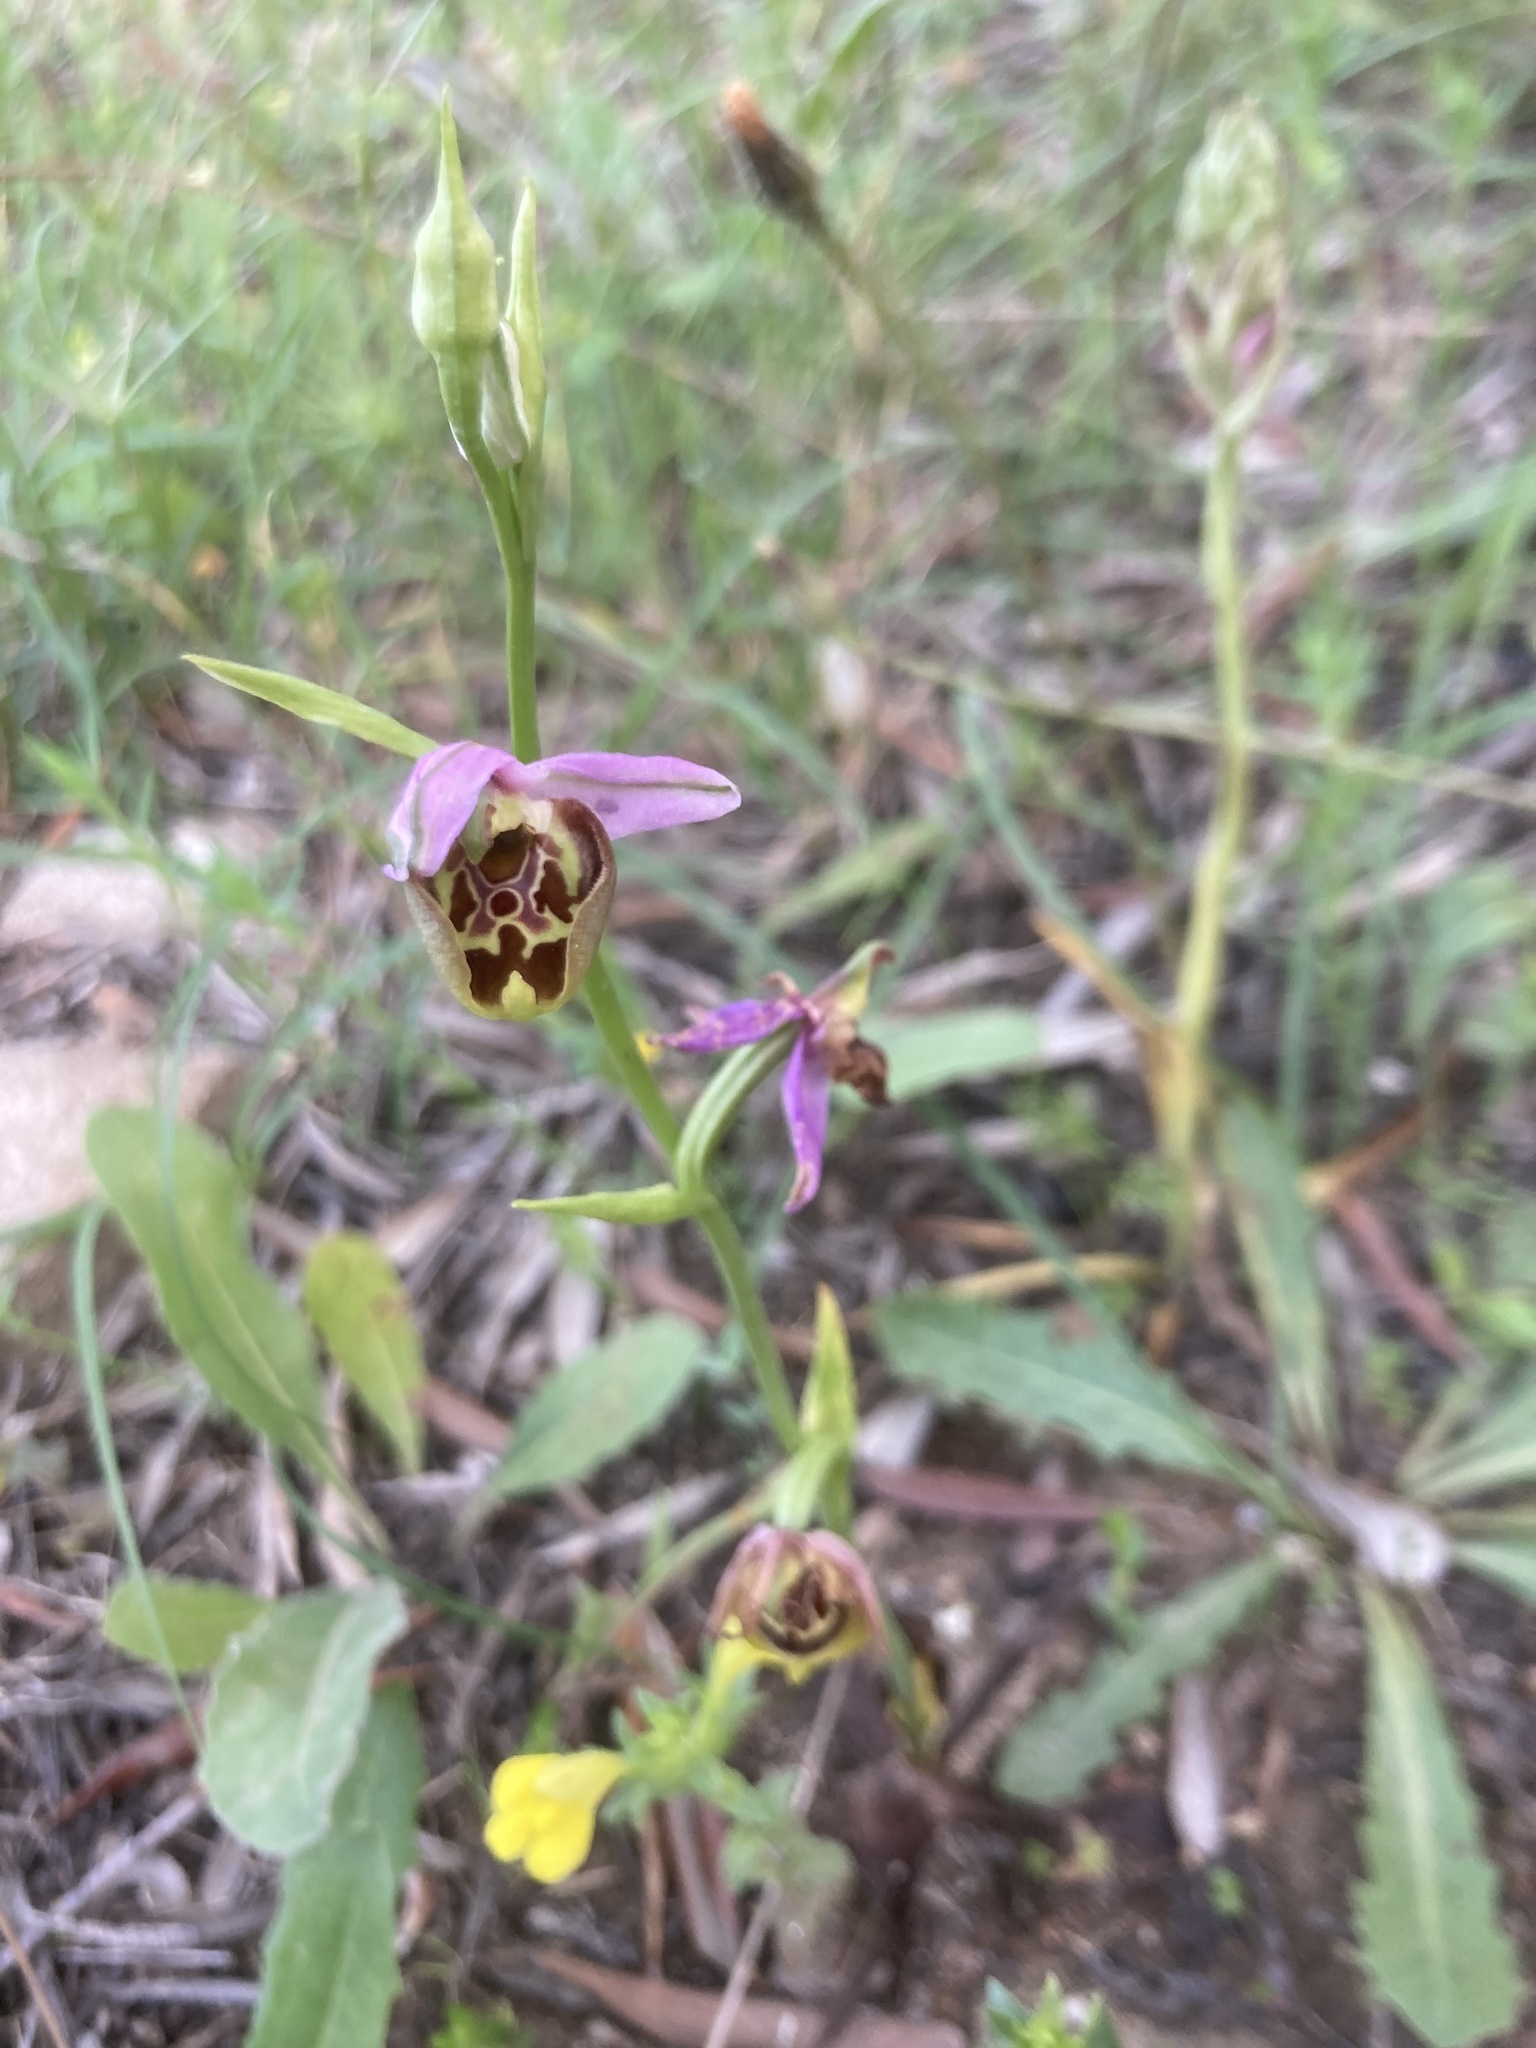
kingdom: Plantae
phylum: Tracheophyta
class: Liliopsida
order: Asparagales
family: Orchidaceae
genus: Ophrys
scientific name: Ophrys holosericea
